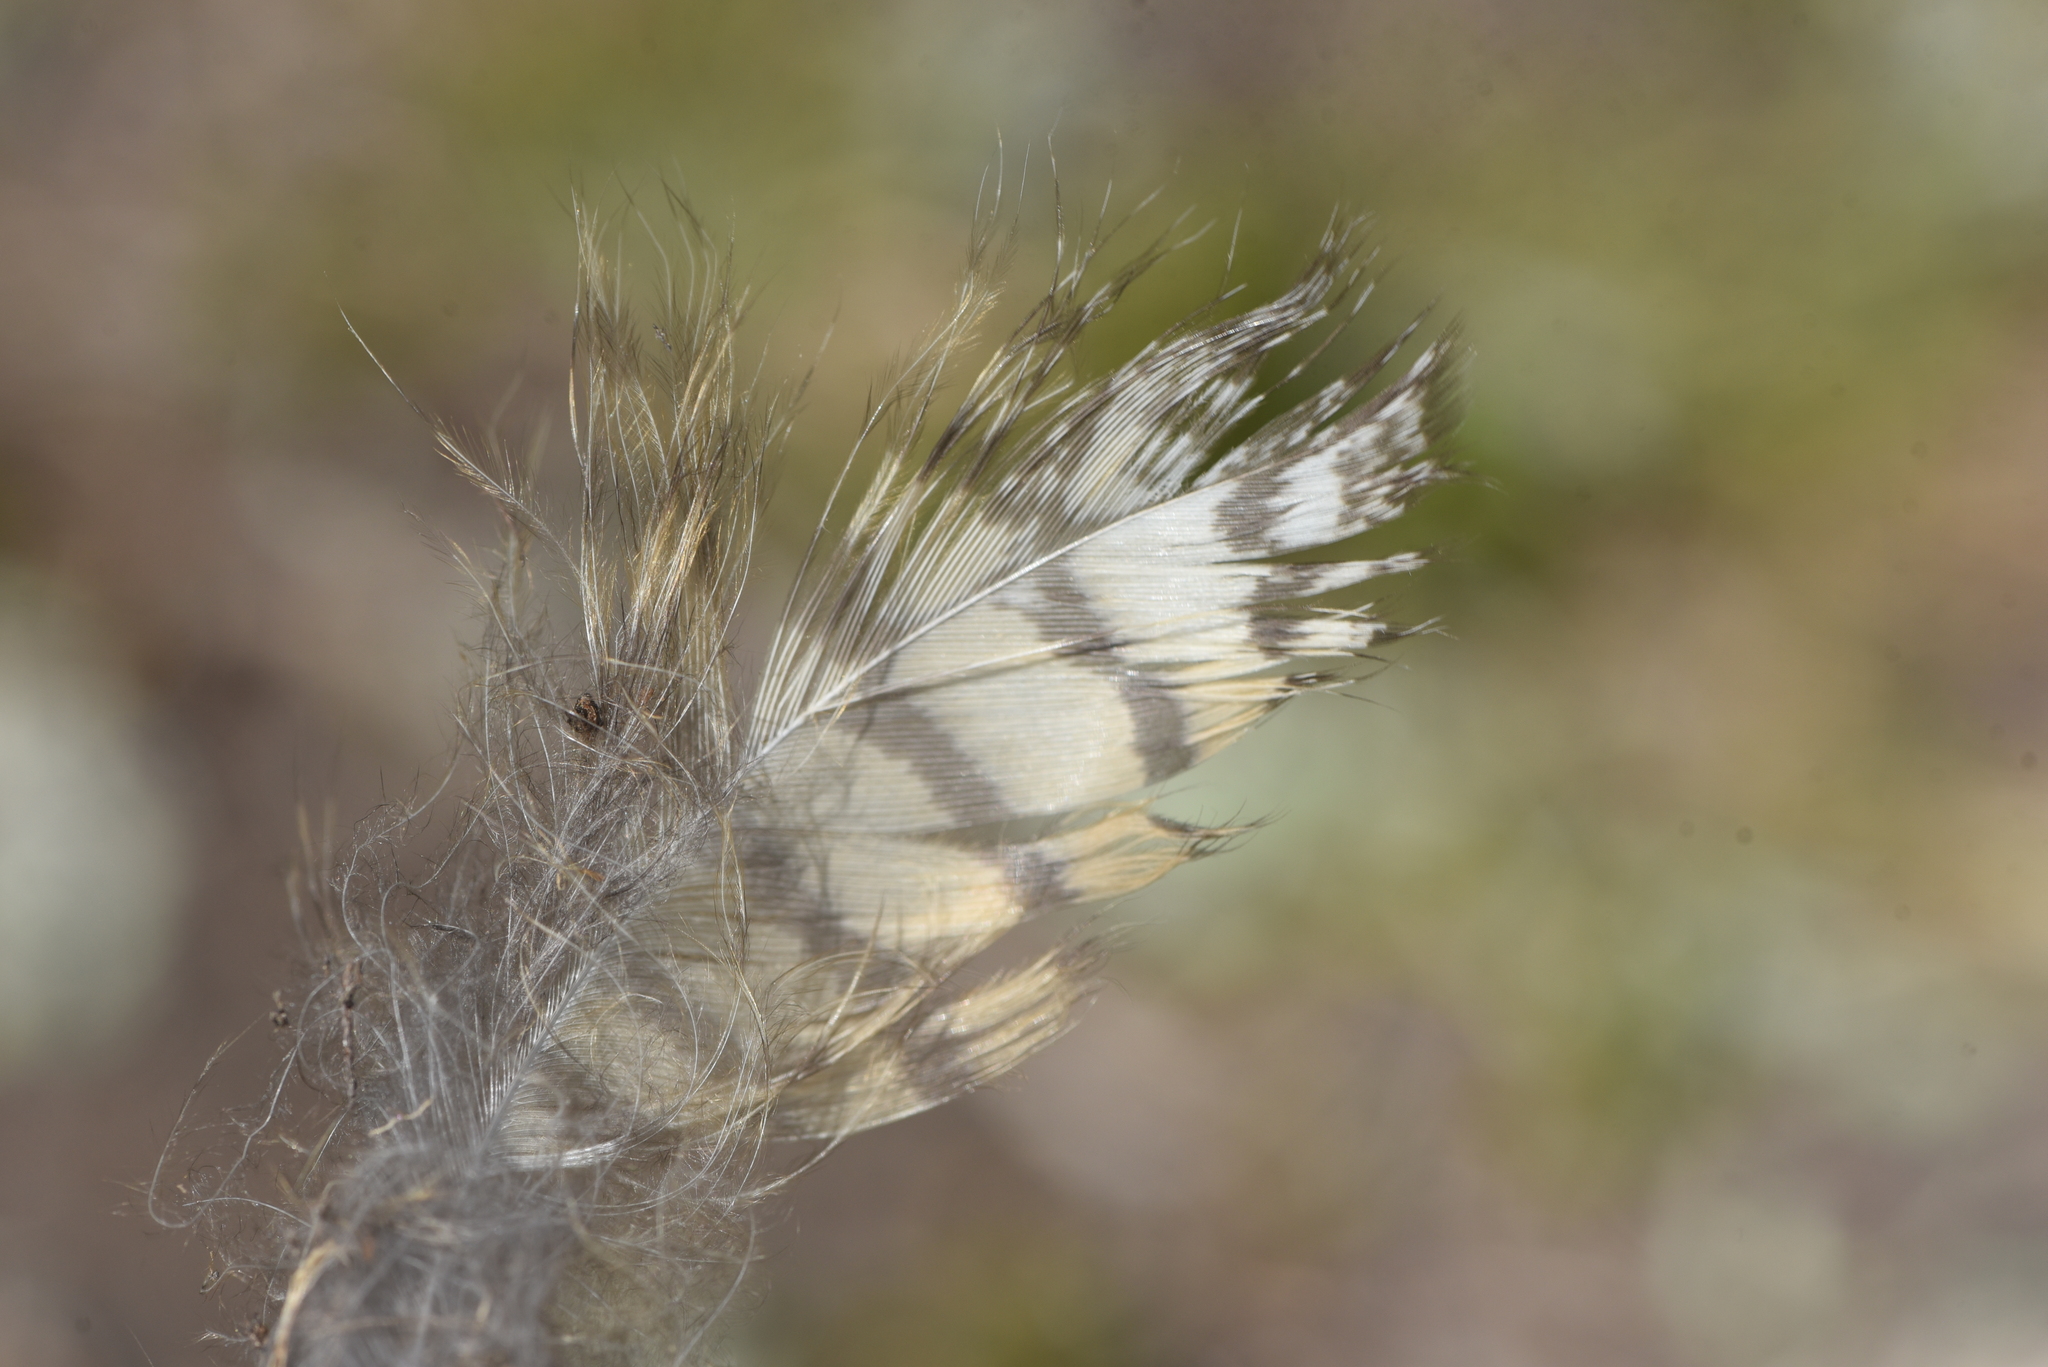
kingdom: Animalia
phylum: Chordata
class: Aves
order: Strigiformes
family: Strigidae
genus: Bubo
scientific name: Bubo virginianus
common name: Great horned owl
